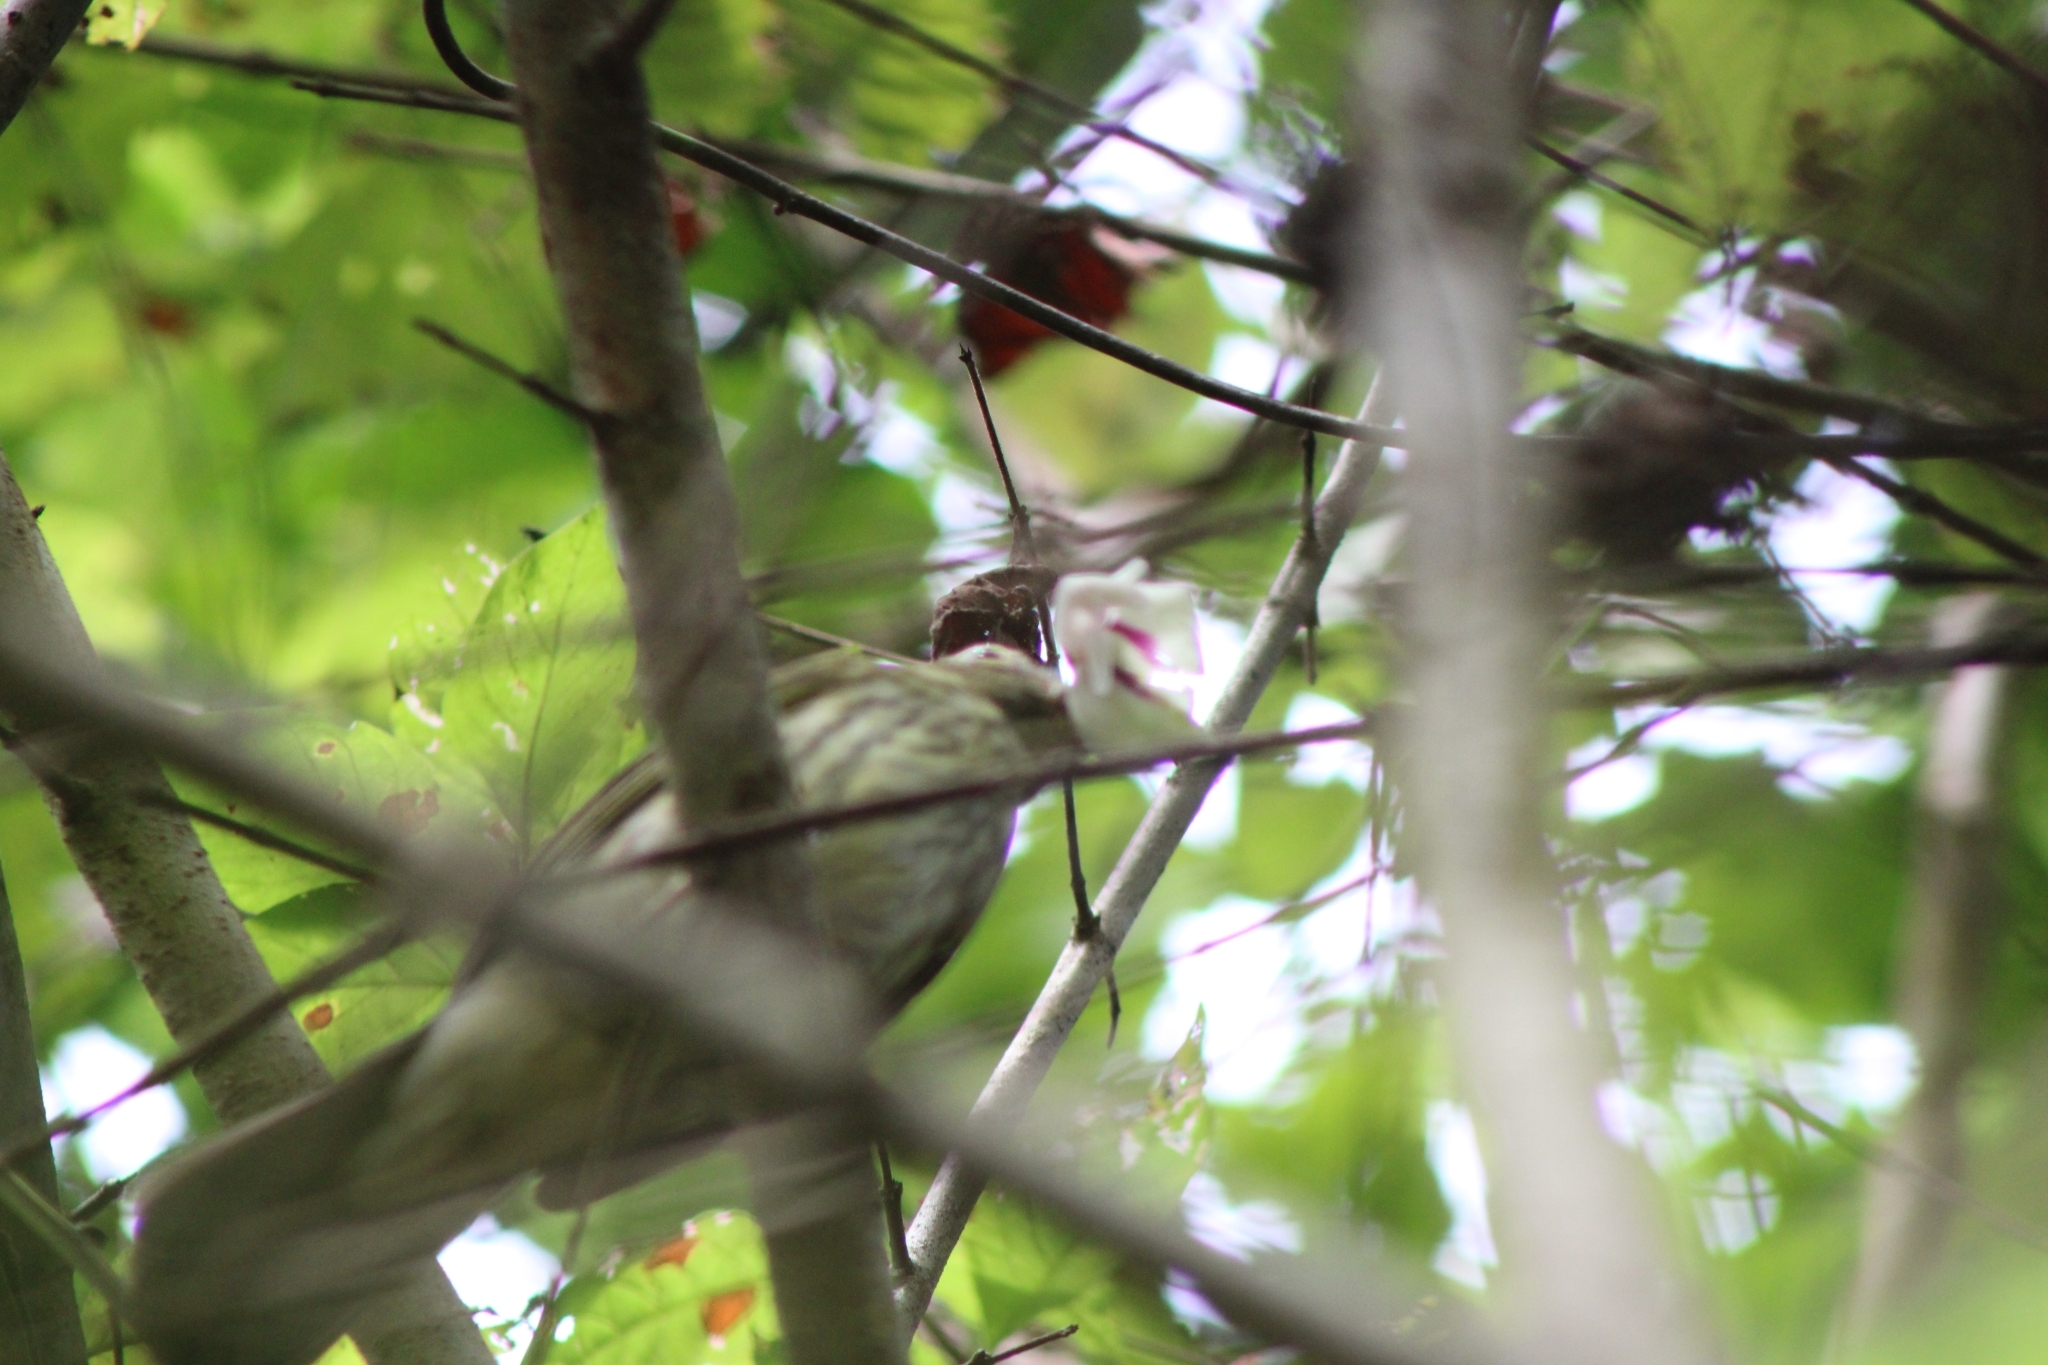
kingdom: Animalia
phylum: Chordata
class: Aves
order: Passeriformes
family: Thraupidae
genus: Saltator
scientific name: Saltator striatipectus
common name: Streaked saltator
